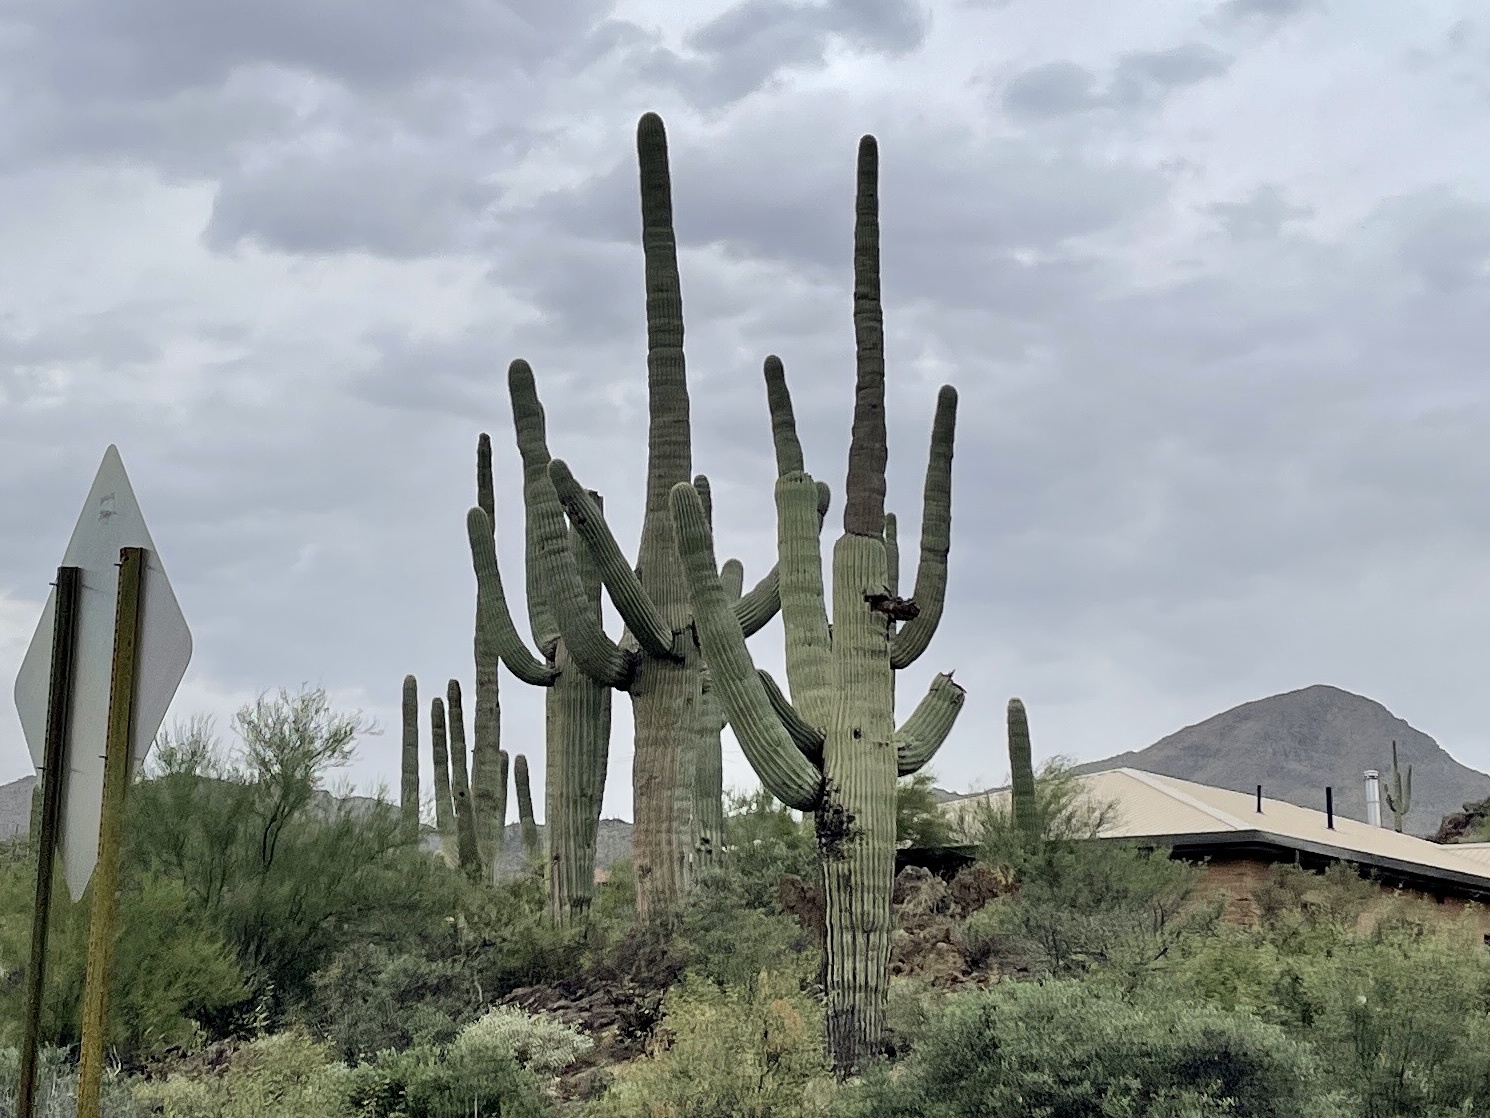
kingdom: Plantae
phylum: Tracheophyta
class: Magnoliopsida
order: Caryophyllales
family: Cactaceae
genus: Carnegiea
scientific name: Carnegiea gigantea
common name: Saguaro
